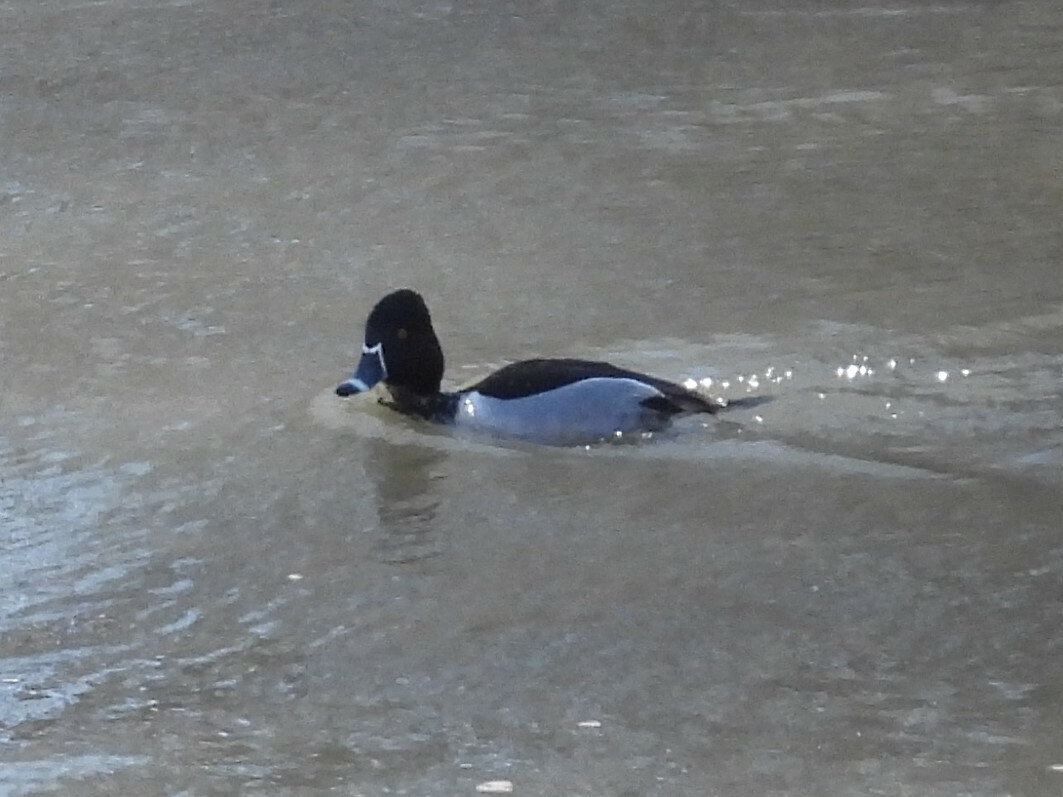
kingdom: Animalia
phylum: Chordata
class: Aves
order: Anseriformes
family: Anatidae
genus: Aythya
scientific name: Aythya collaris
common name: Ring-necked duck
